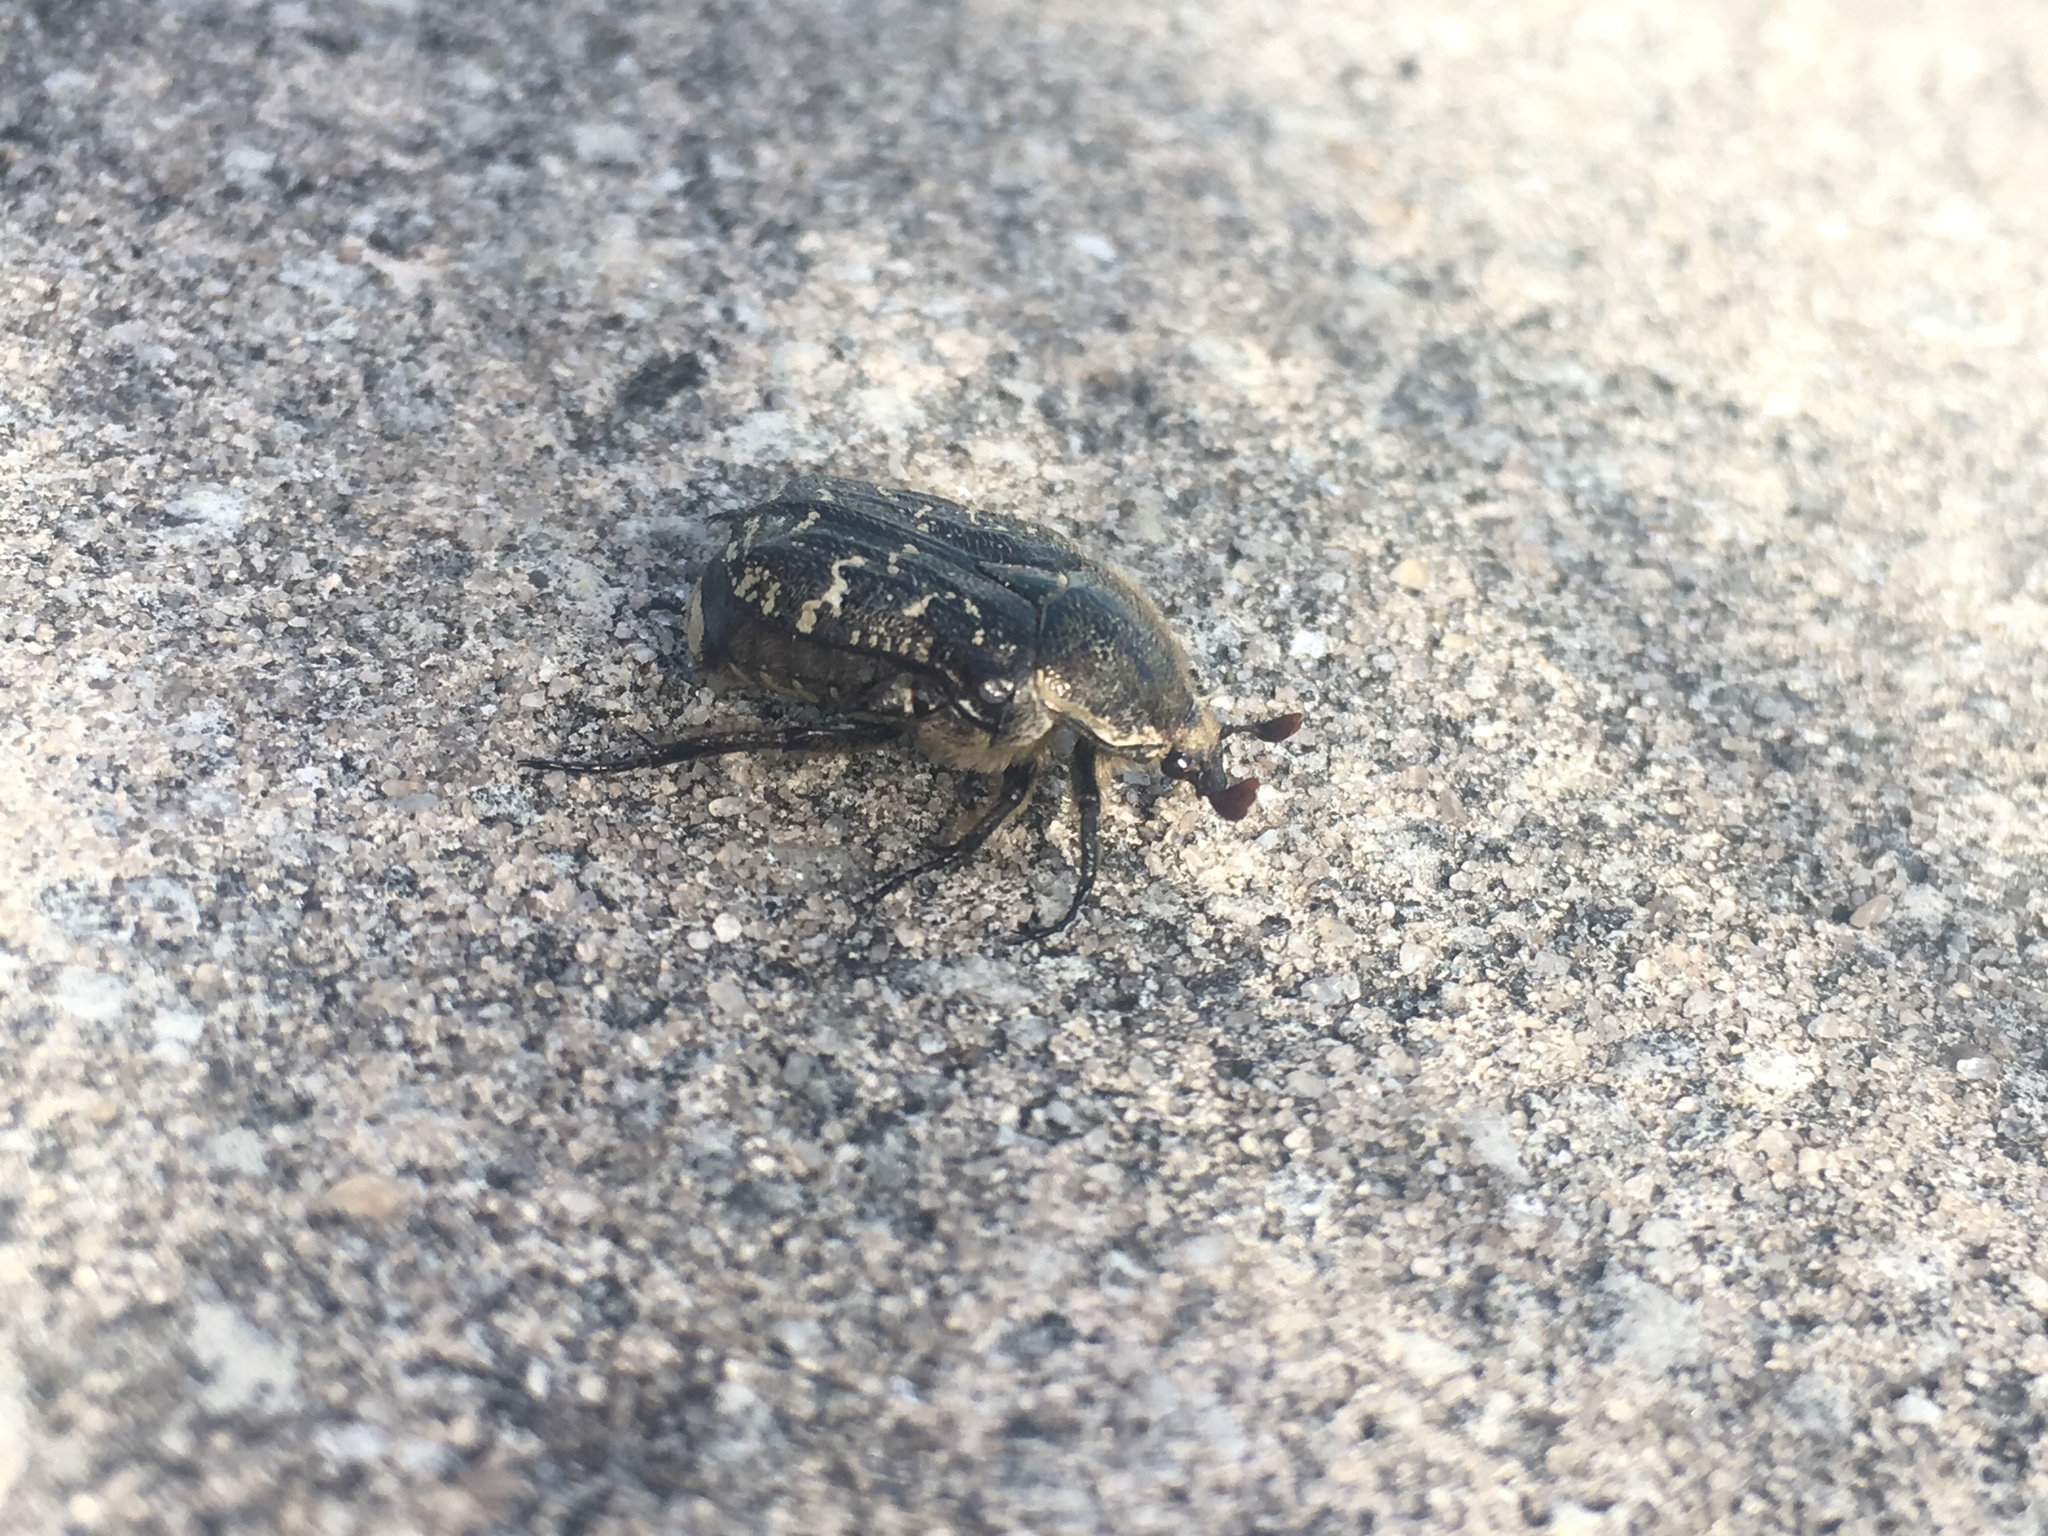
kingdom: Animalia
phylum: Arthropoda
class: Insecta
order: Coleoptera
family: Scarabaeidae
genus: Euphoria
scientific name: Euphoria sepulcralis
